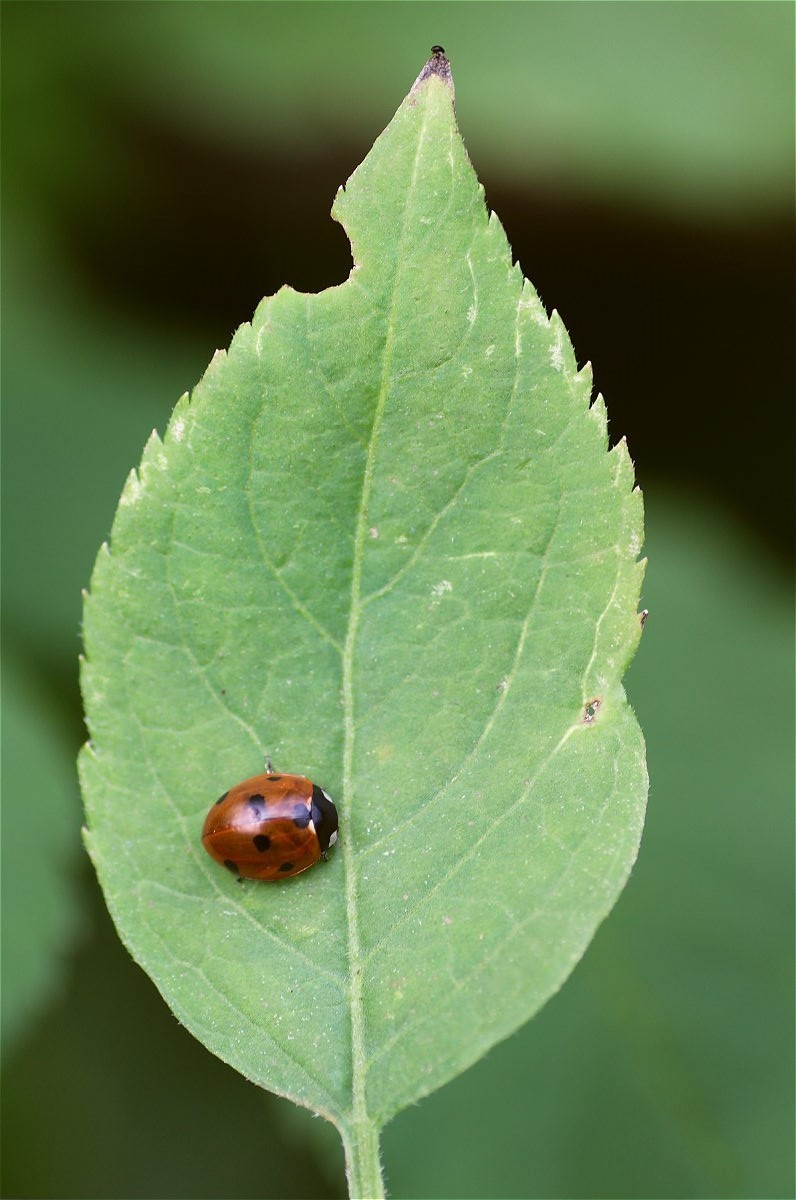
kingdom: Animalia
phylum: Arthropoda
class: Insecta
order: Coleoptera
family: Coccinellidae
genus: Coccinella
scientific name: Coccinella septempunctata
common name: Sevenspotted lady beetle
